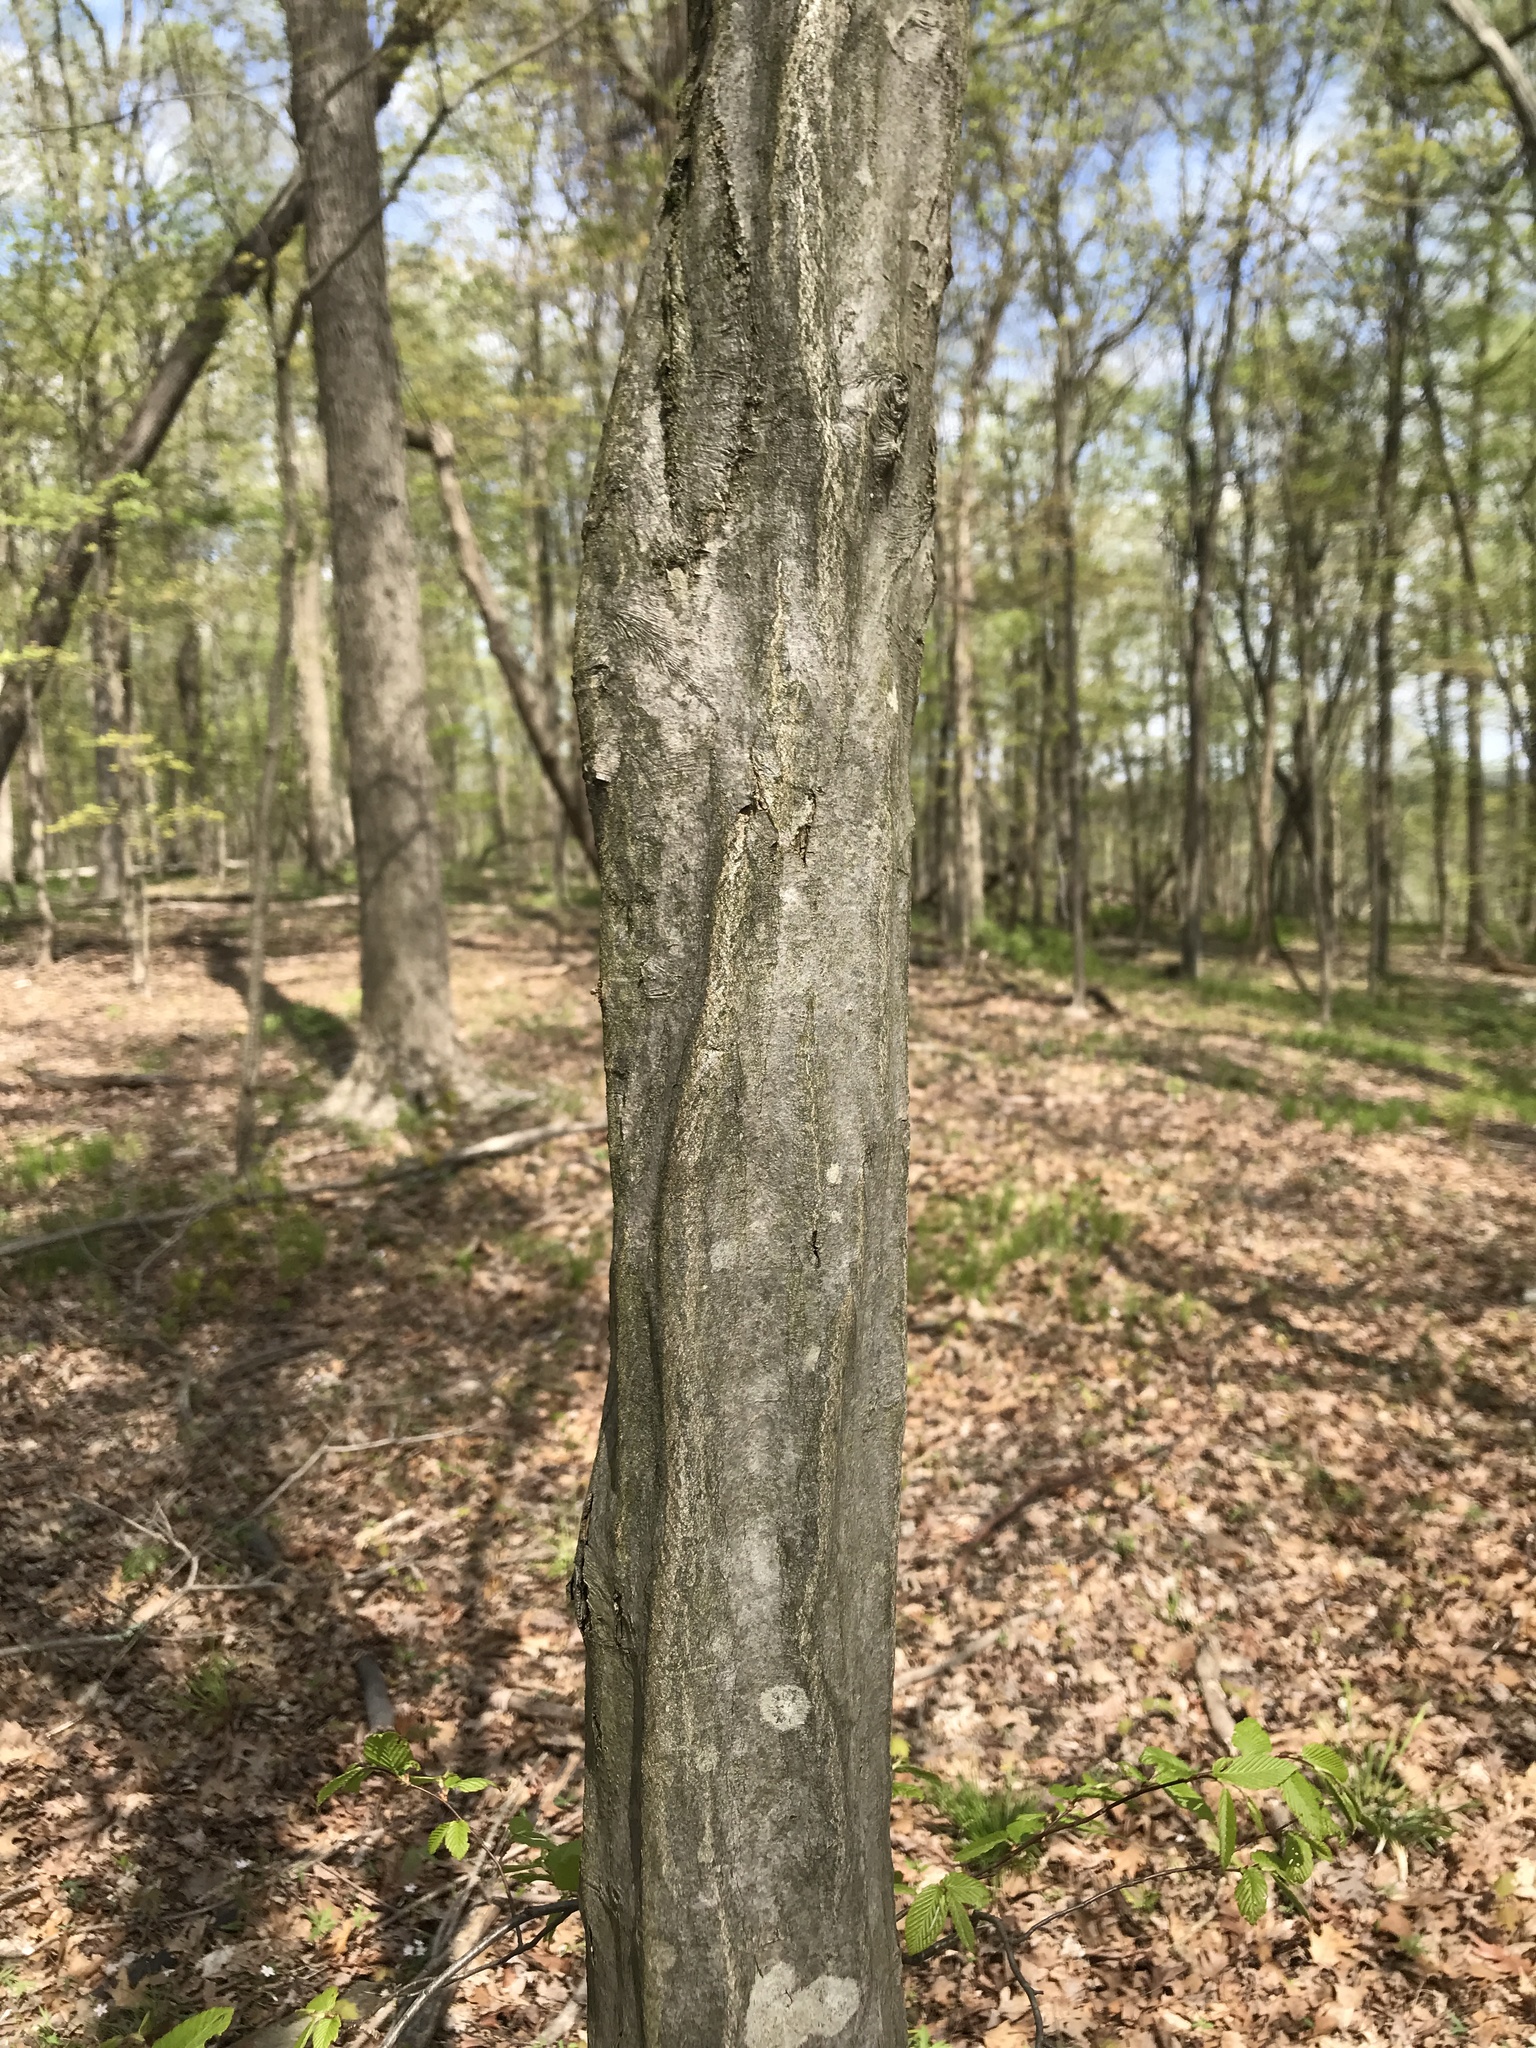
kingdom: Plantae
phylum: Tracheophyta
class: Magnoliopsida
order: Fagales
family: Betulaceae
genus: Carpinus
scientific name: Carpinus caroliniana
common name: American hornbeam
